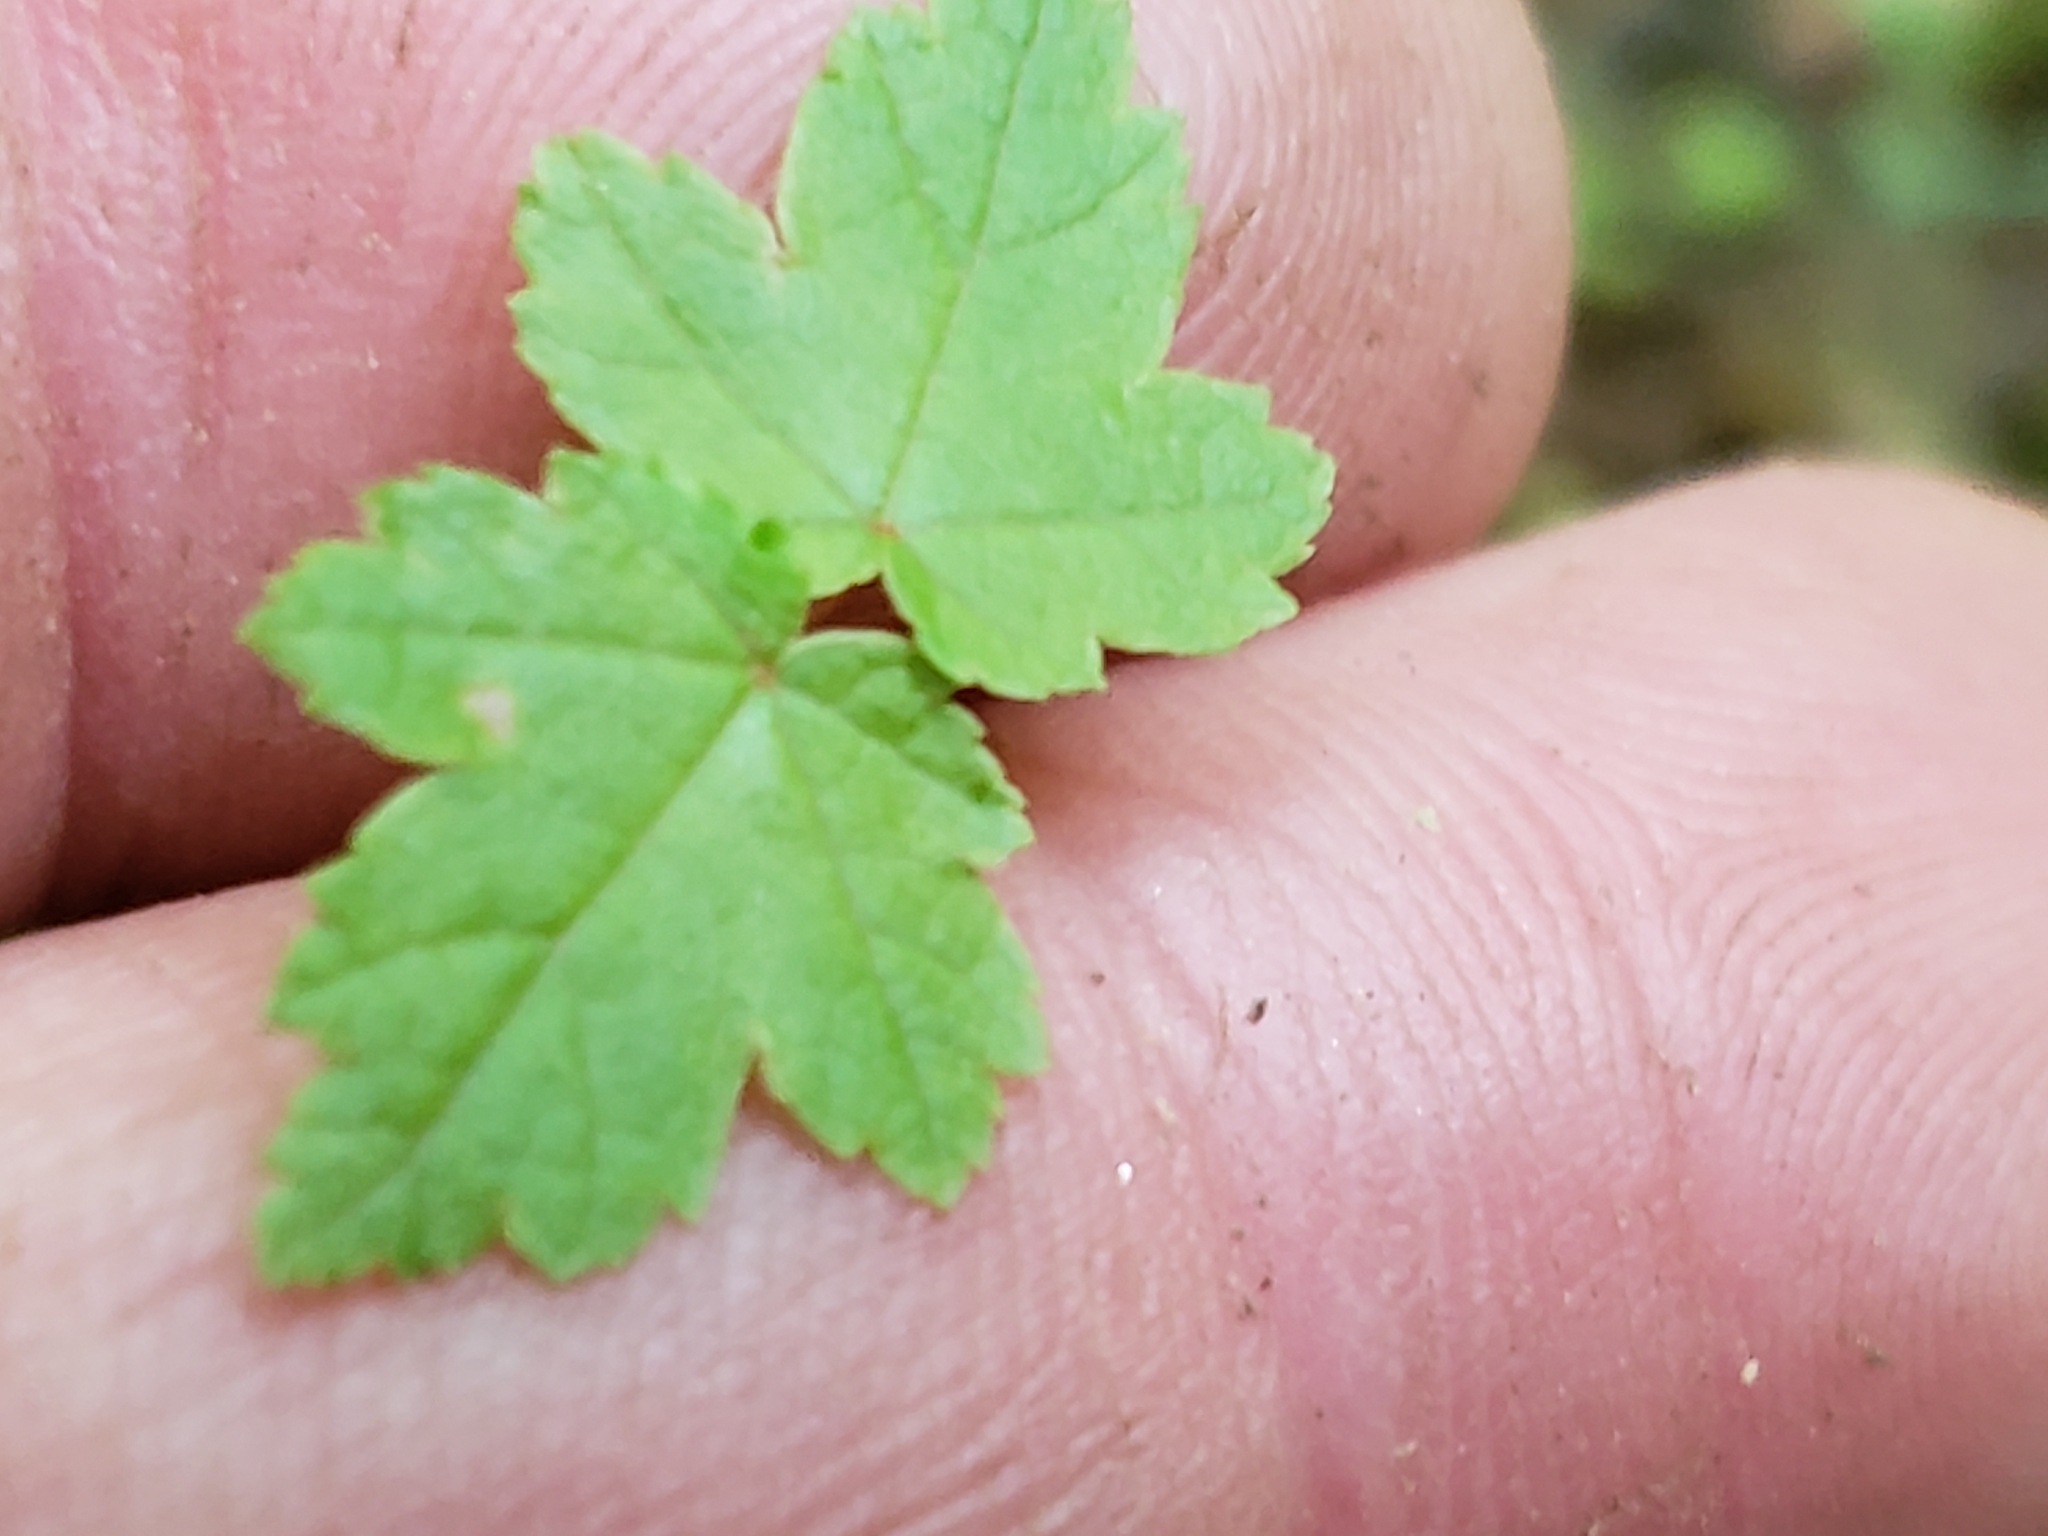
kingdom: Plantae
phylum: Tracheophyta
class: Magnoliopsida
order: Sapindales
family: Sapindaceae
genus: Acer
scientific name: Acer rubrum
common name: Red maple
